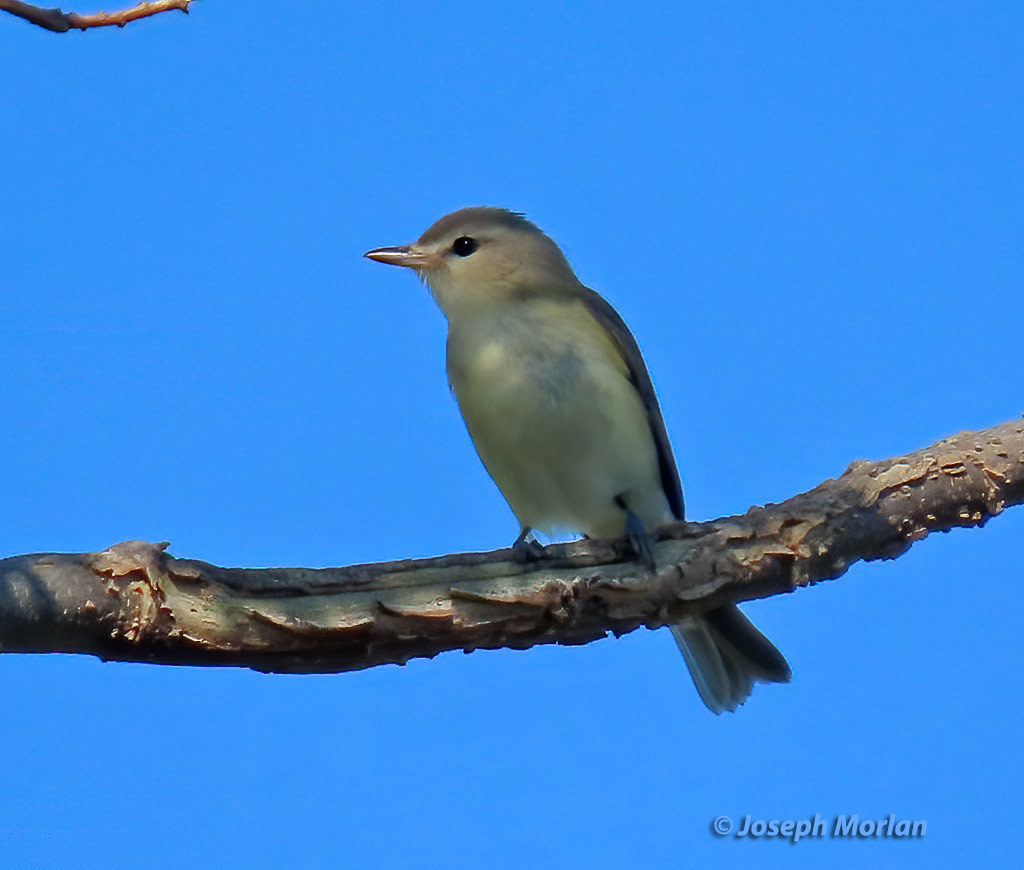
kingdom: Animalia
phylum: Chordata
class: Aves
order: Passeriformes
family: Vireonidae
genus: Vireo
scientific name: Vireo gilvus
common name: Warbling vireo
